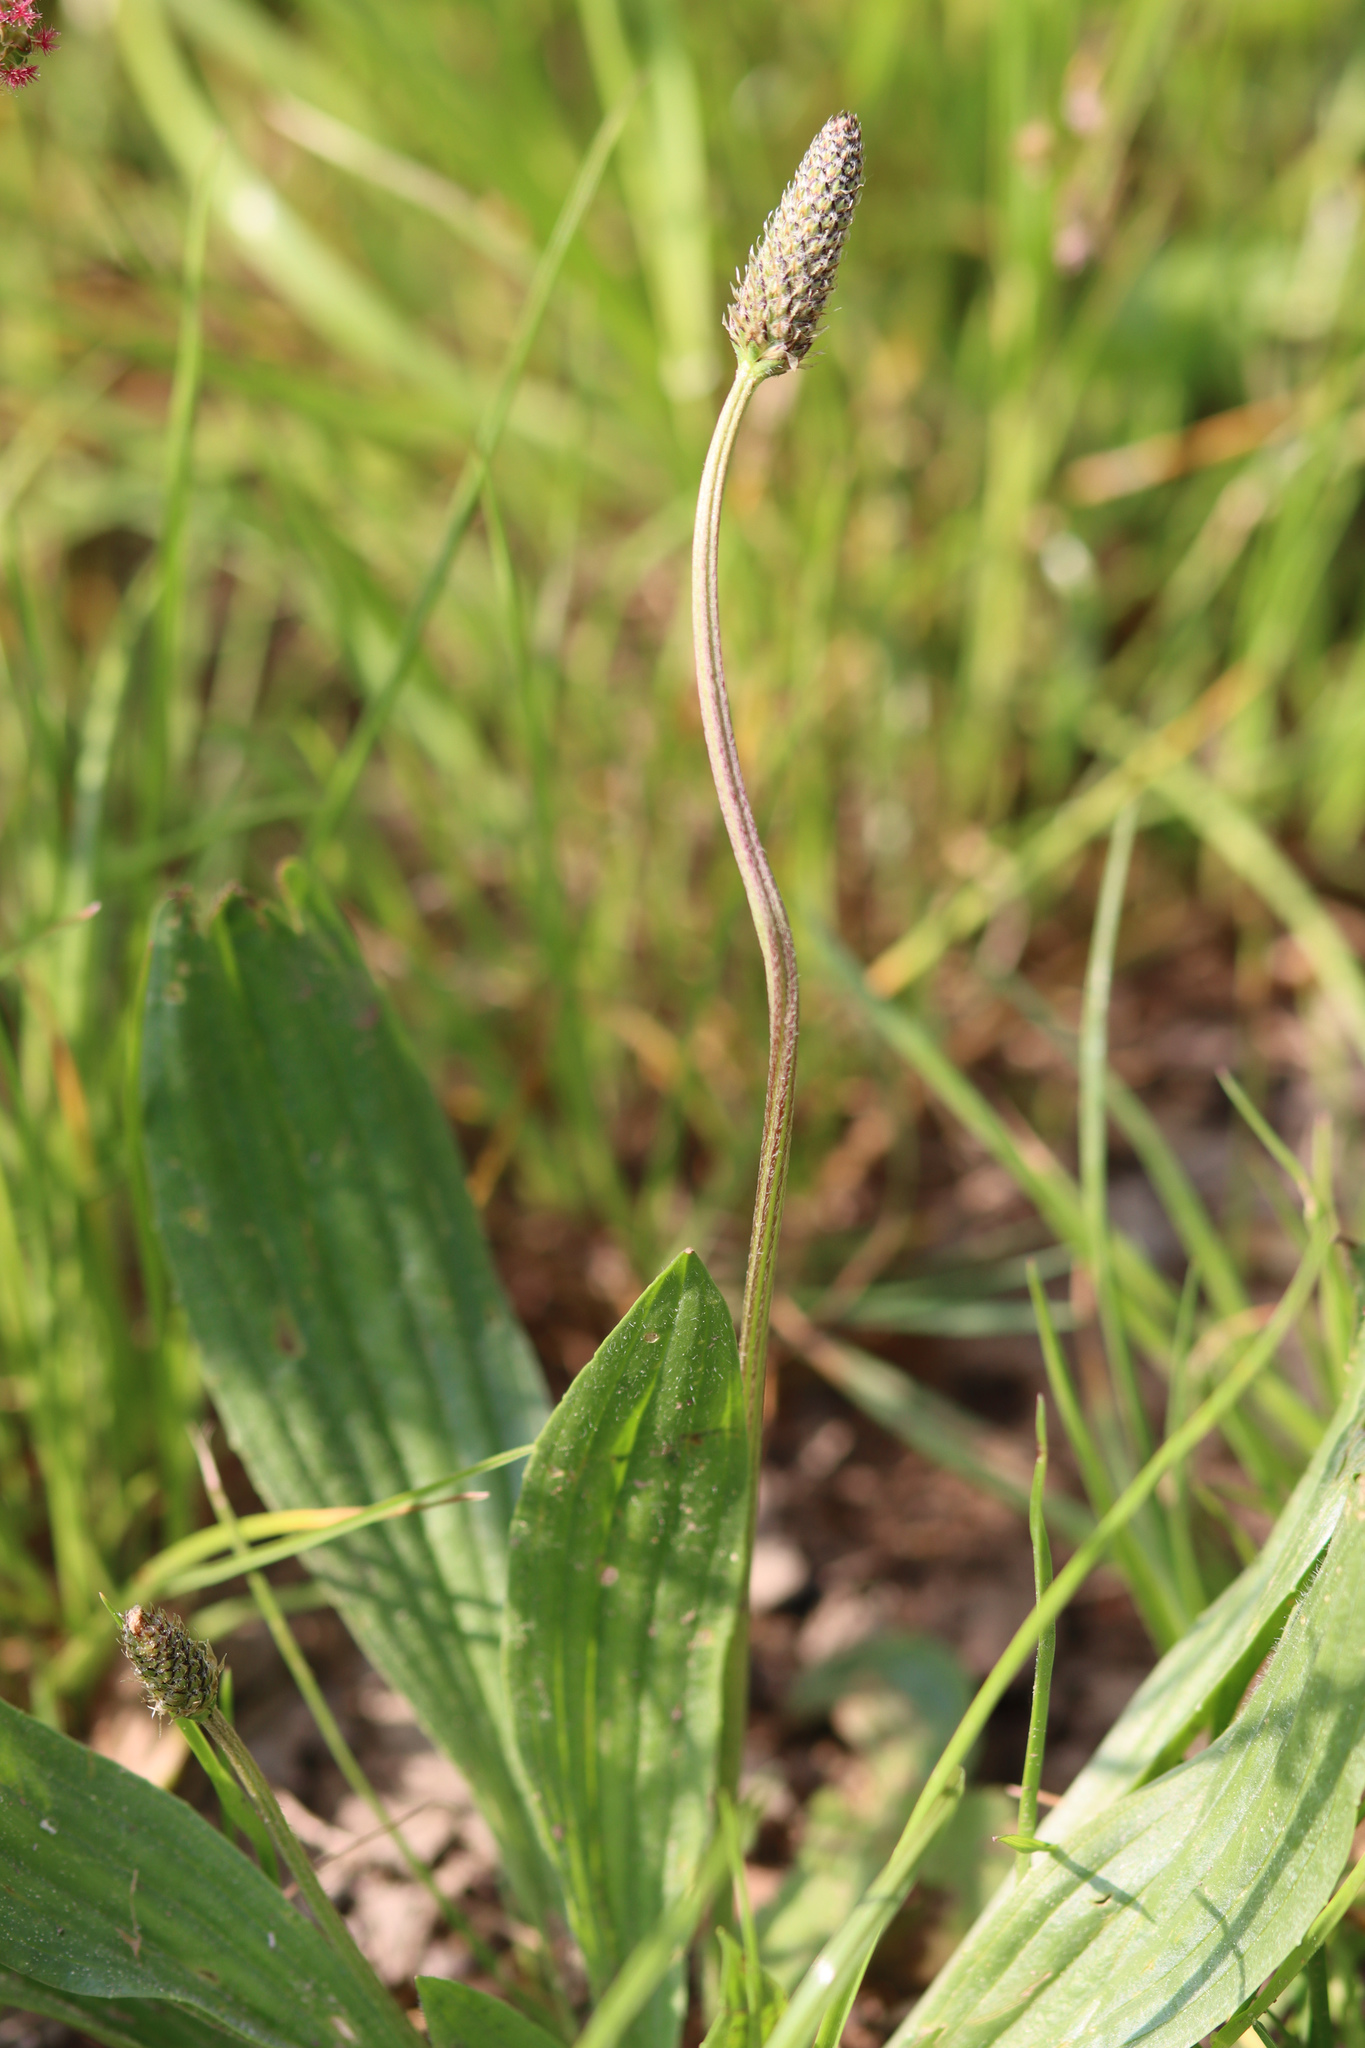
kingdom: Plantae
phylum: Tracheophyta
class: Magnoliopsida
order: Lamiales
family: Plantaginaceae
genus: Plantago
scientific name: Plantago lanceolata
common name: Ribwort plantain
